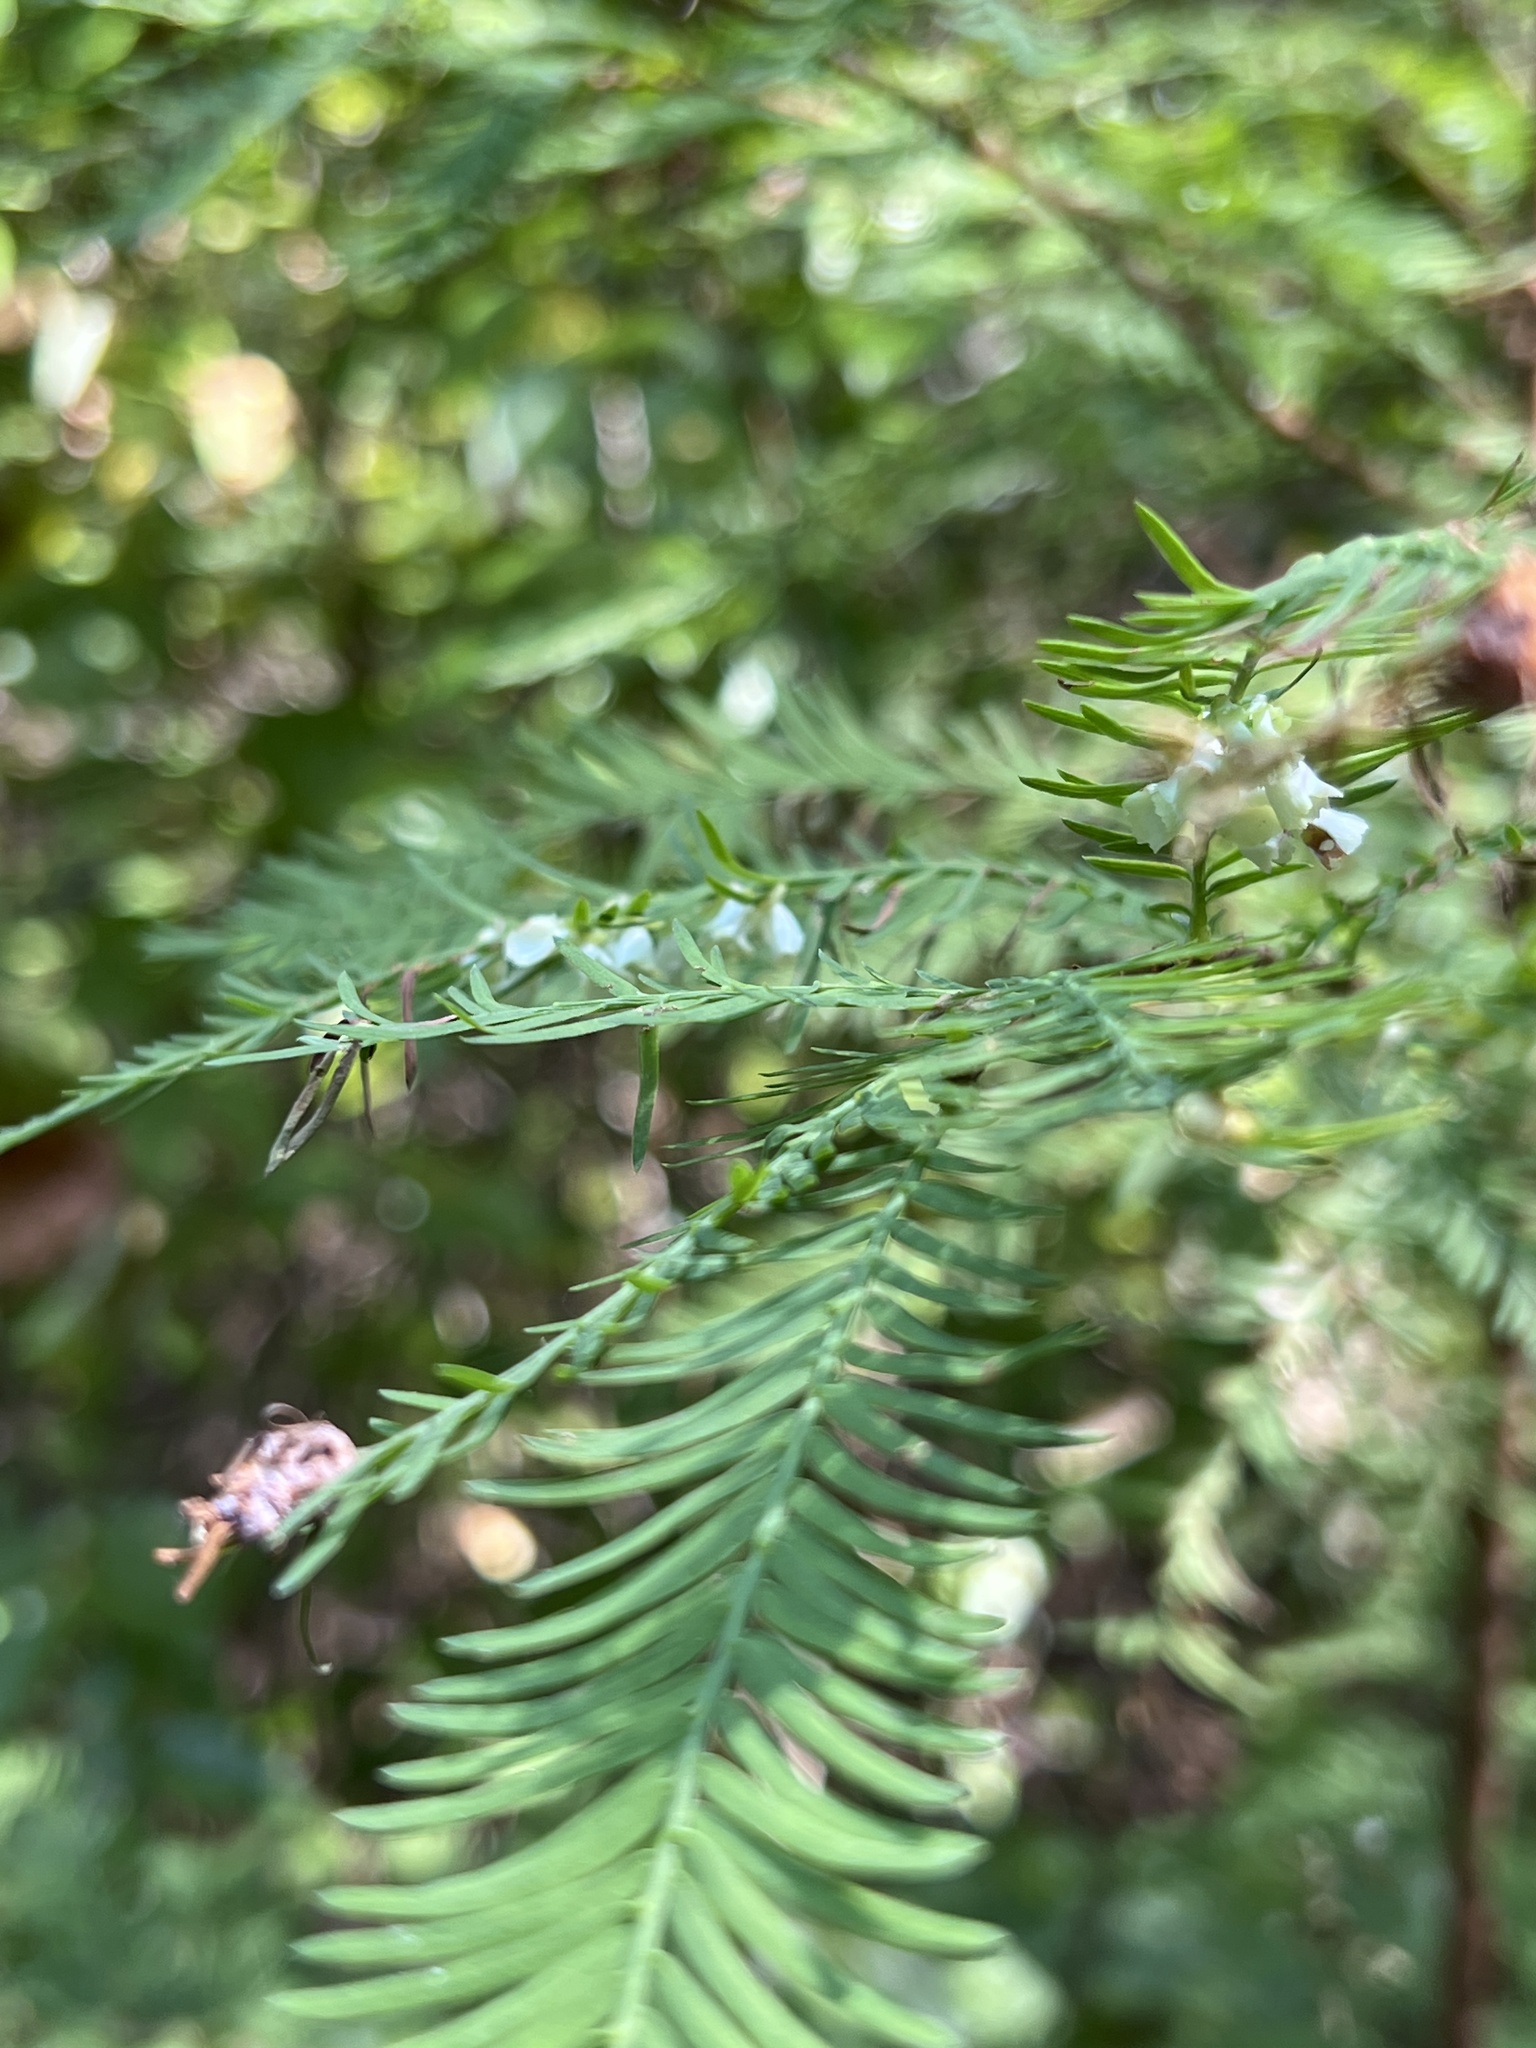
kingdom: Animalia
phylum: Arthropoda
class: Insecta
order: Diptera
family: Cecidomyiidae
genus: Taxodiomyia
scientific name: Taxodiomyia cupressi
